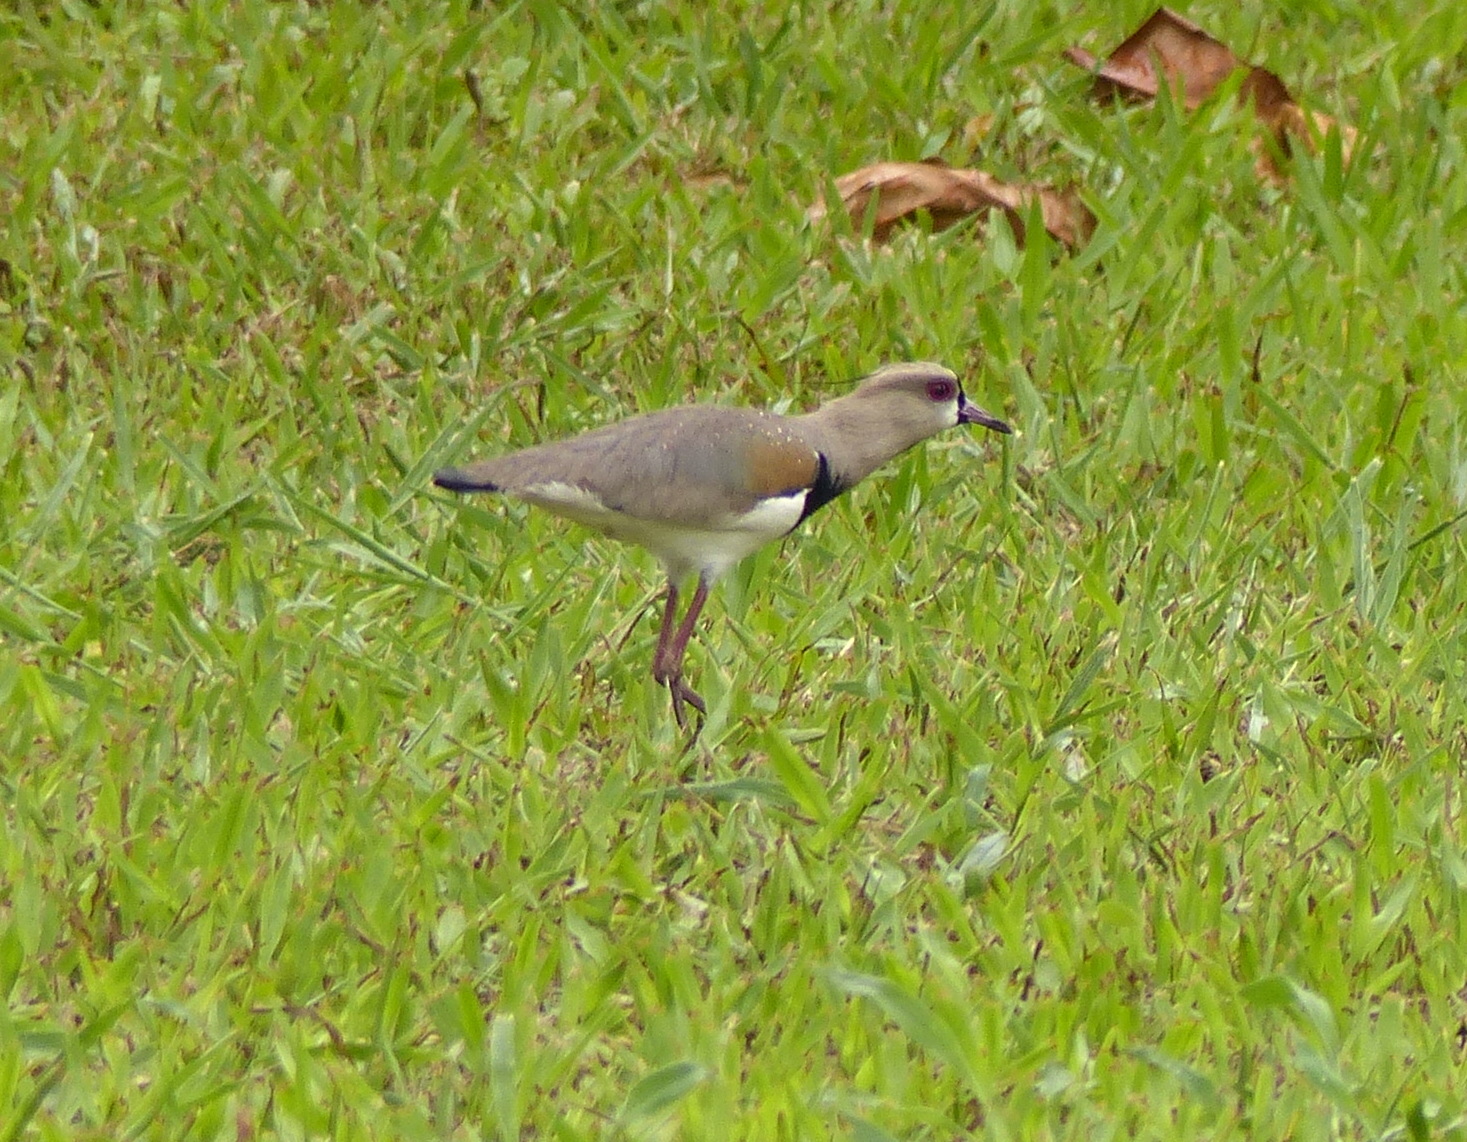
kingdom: Animalia
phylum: Chordata
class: Aves
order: Charadriiformes
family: Charadriidae
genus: Vanellus
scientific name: Vanellus chilensis
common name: Southern lapwing
